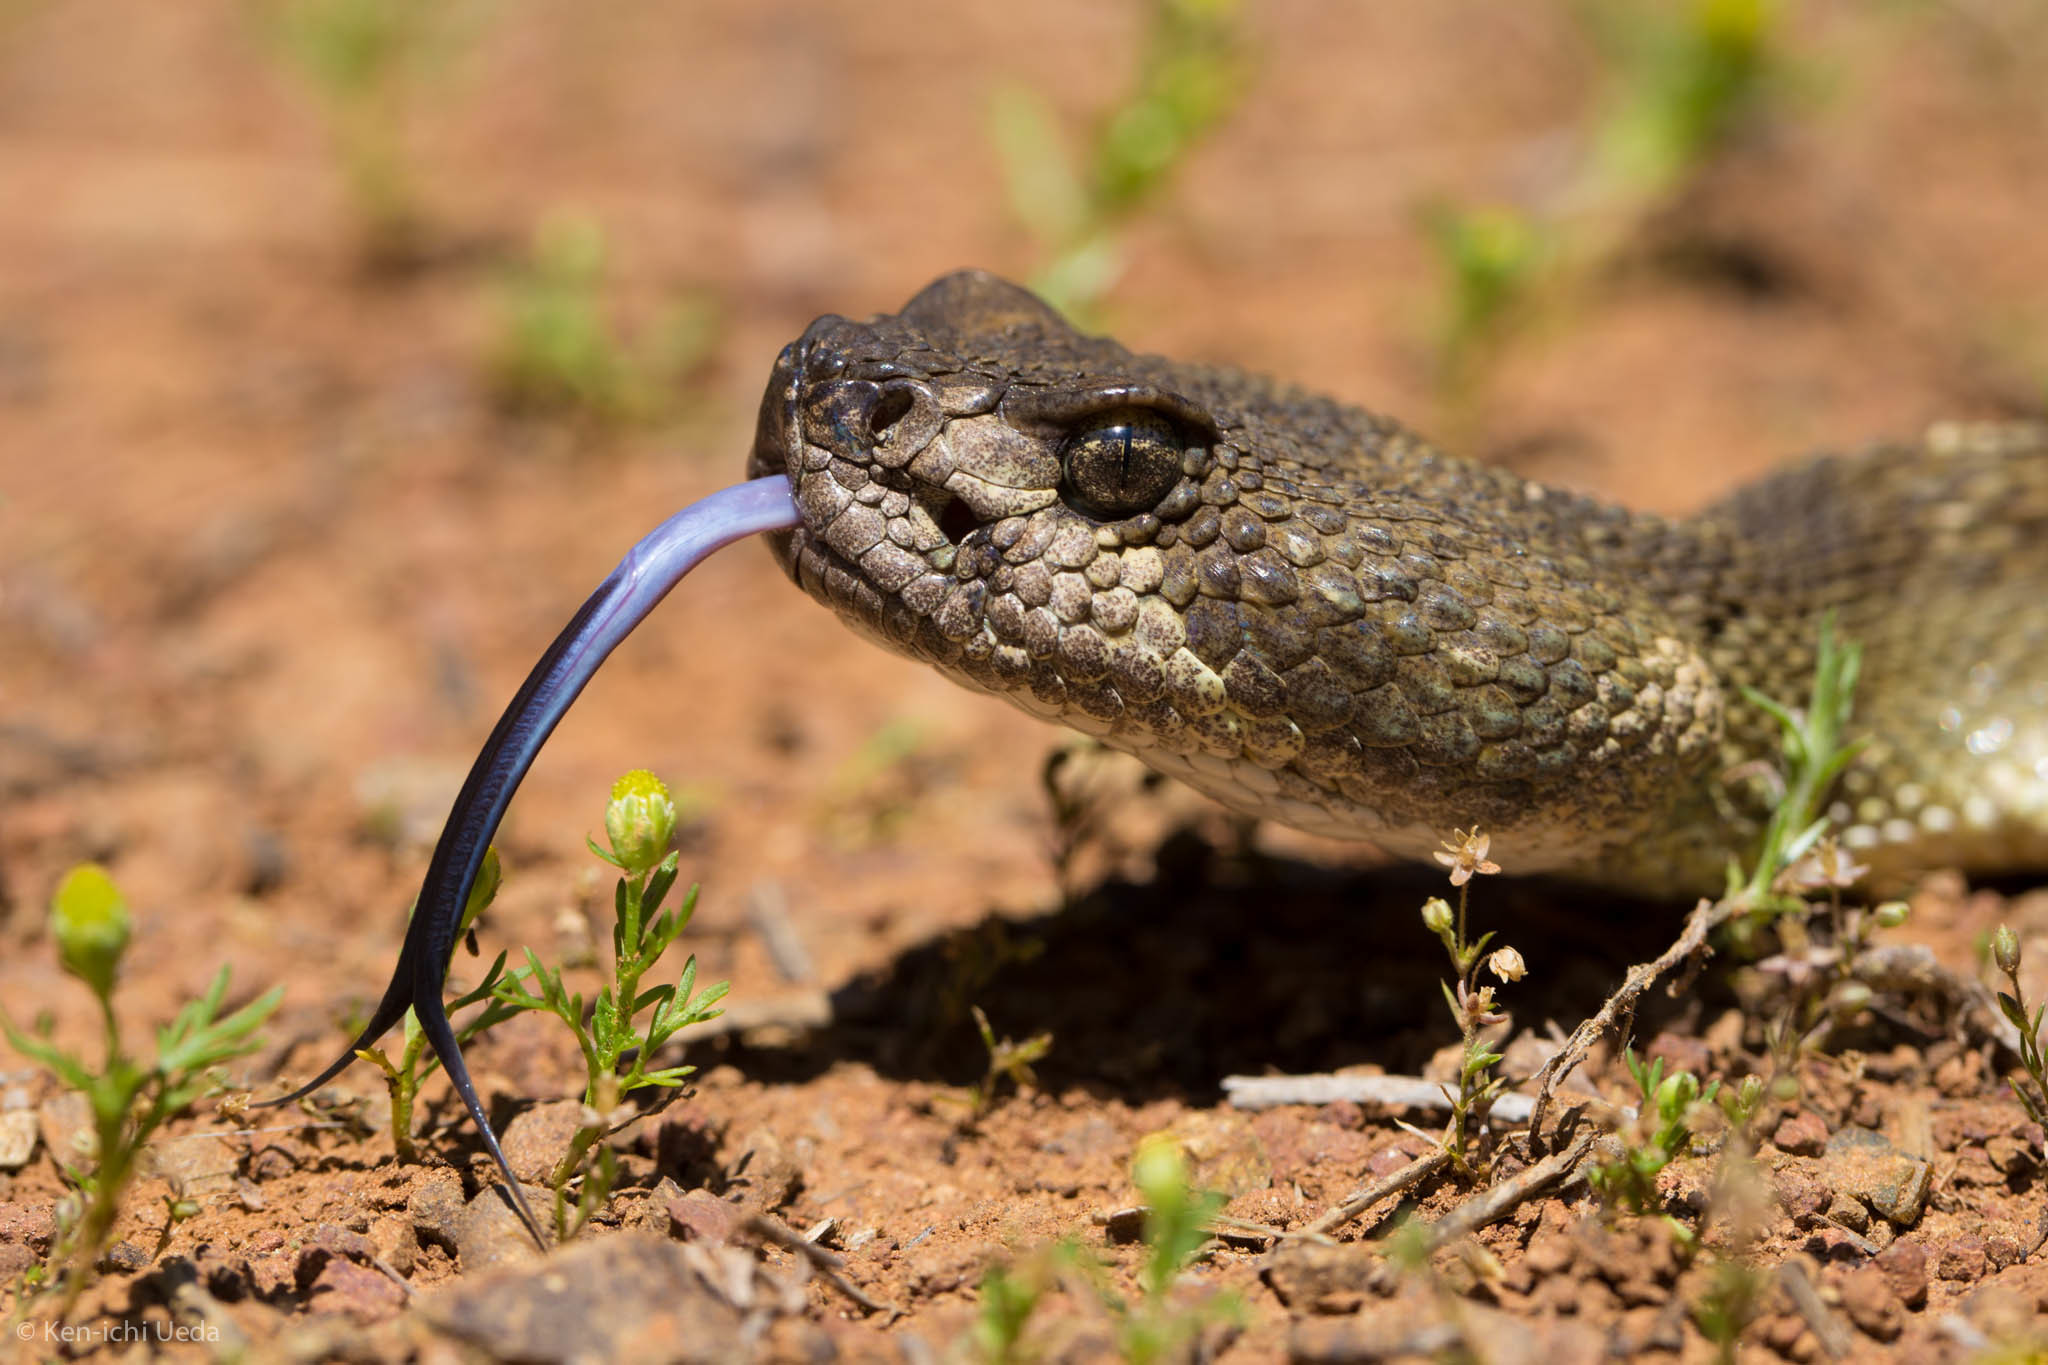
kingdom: Animalia
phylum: Chordata
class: Squamata
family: Viperidae
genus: Crotalus
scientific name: Crotalus oreganus
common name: Abyssus
